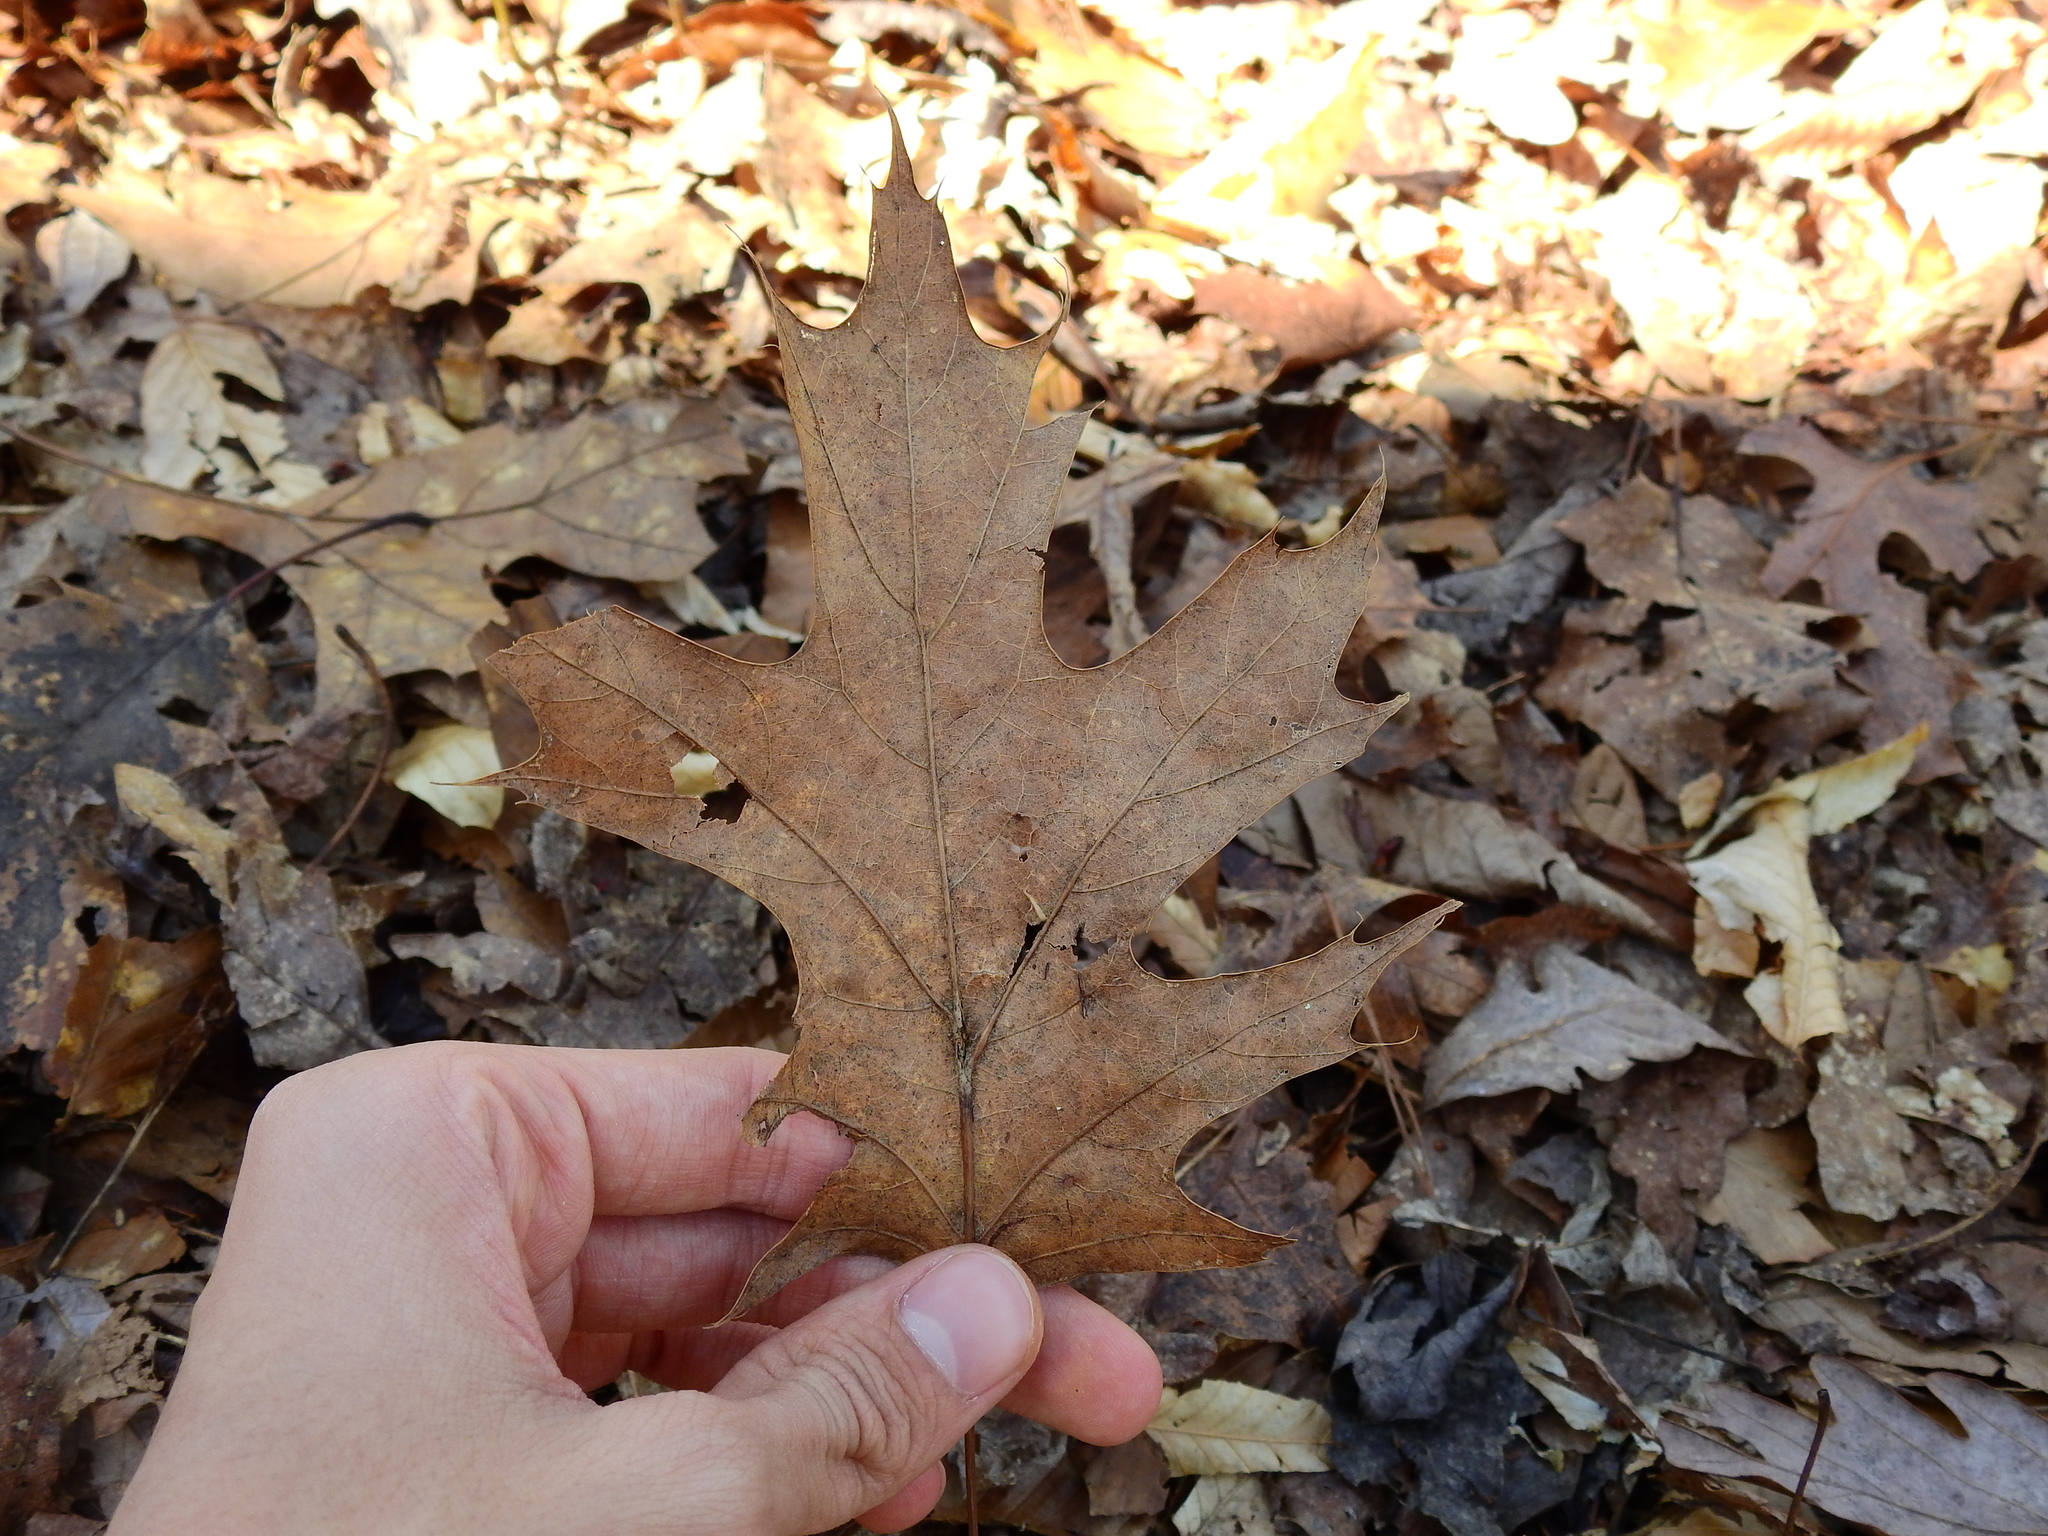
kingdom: Plantae
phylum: Tracheophyta
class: Magnoliopsida
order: Fagales
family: Fagaceae
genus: Quercus
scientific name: Quercus rubra
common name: Red oak
